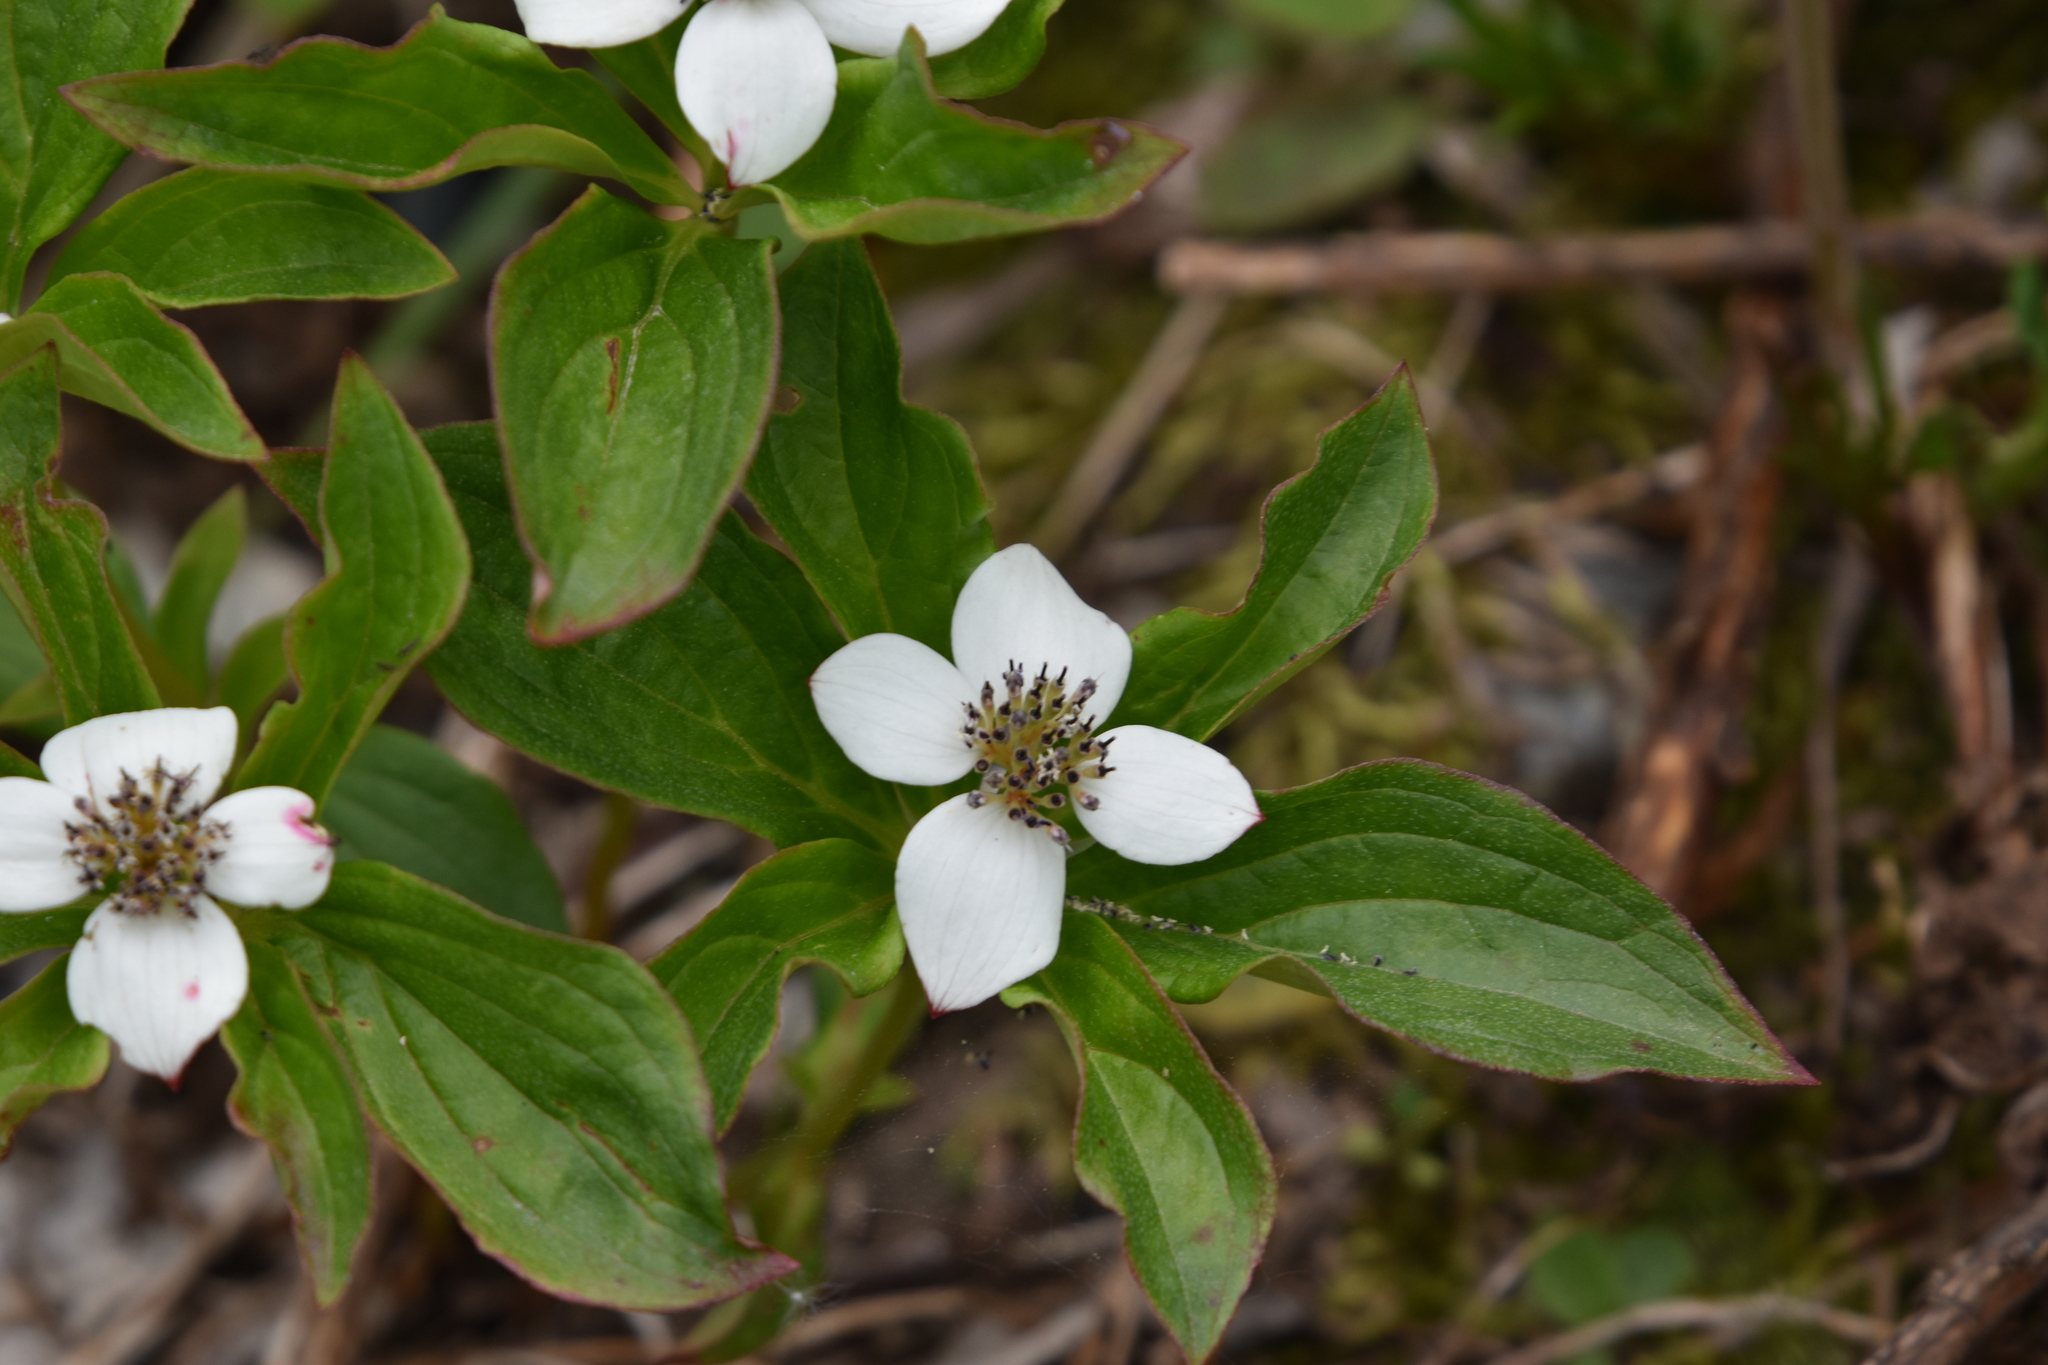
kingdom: Plantae
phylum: Tracheophyta
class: Magnoliopsida
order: Cornales
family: Cornaceae
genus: Cornus
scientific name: Cornus unalaschkensis
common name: Alaska bunchberry
